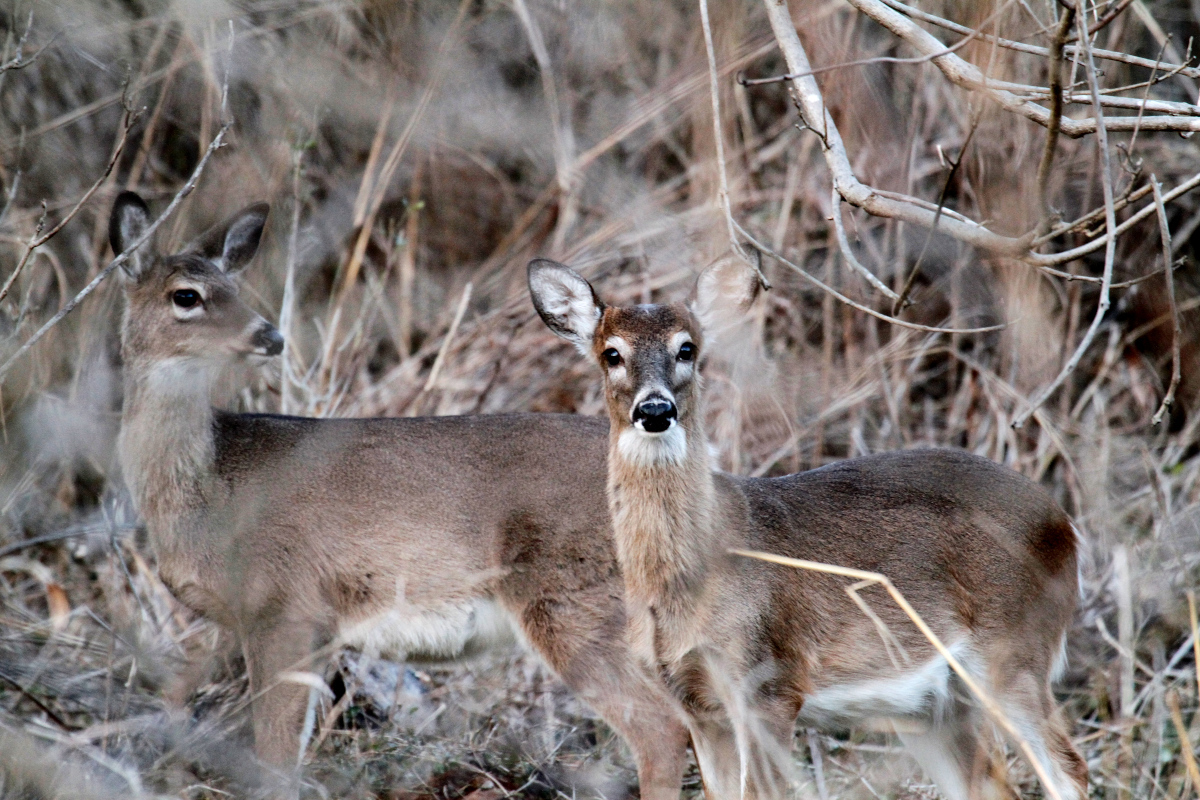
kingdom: Animalia
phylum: Chordata
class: Mammalia
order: Artiodactyla
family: Cervidae
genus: Odocoileus
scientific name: Odocoileus virginianus
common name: White-tailed deer
